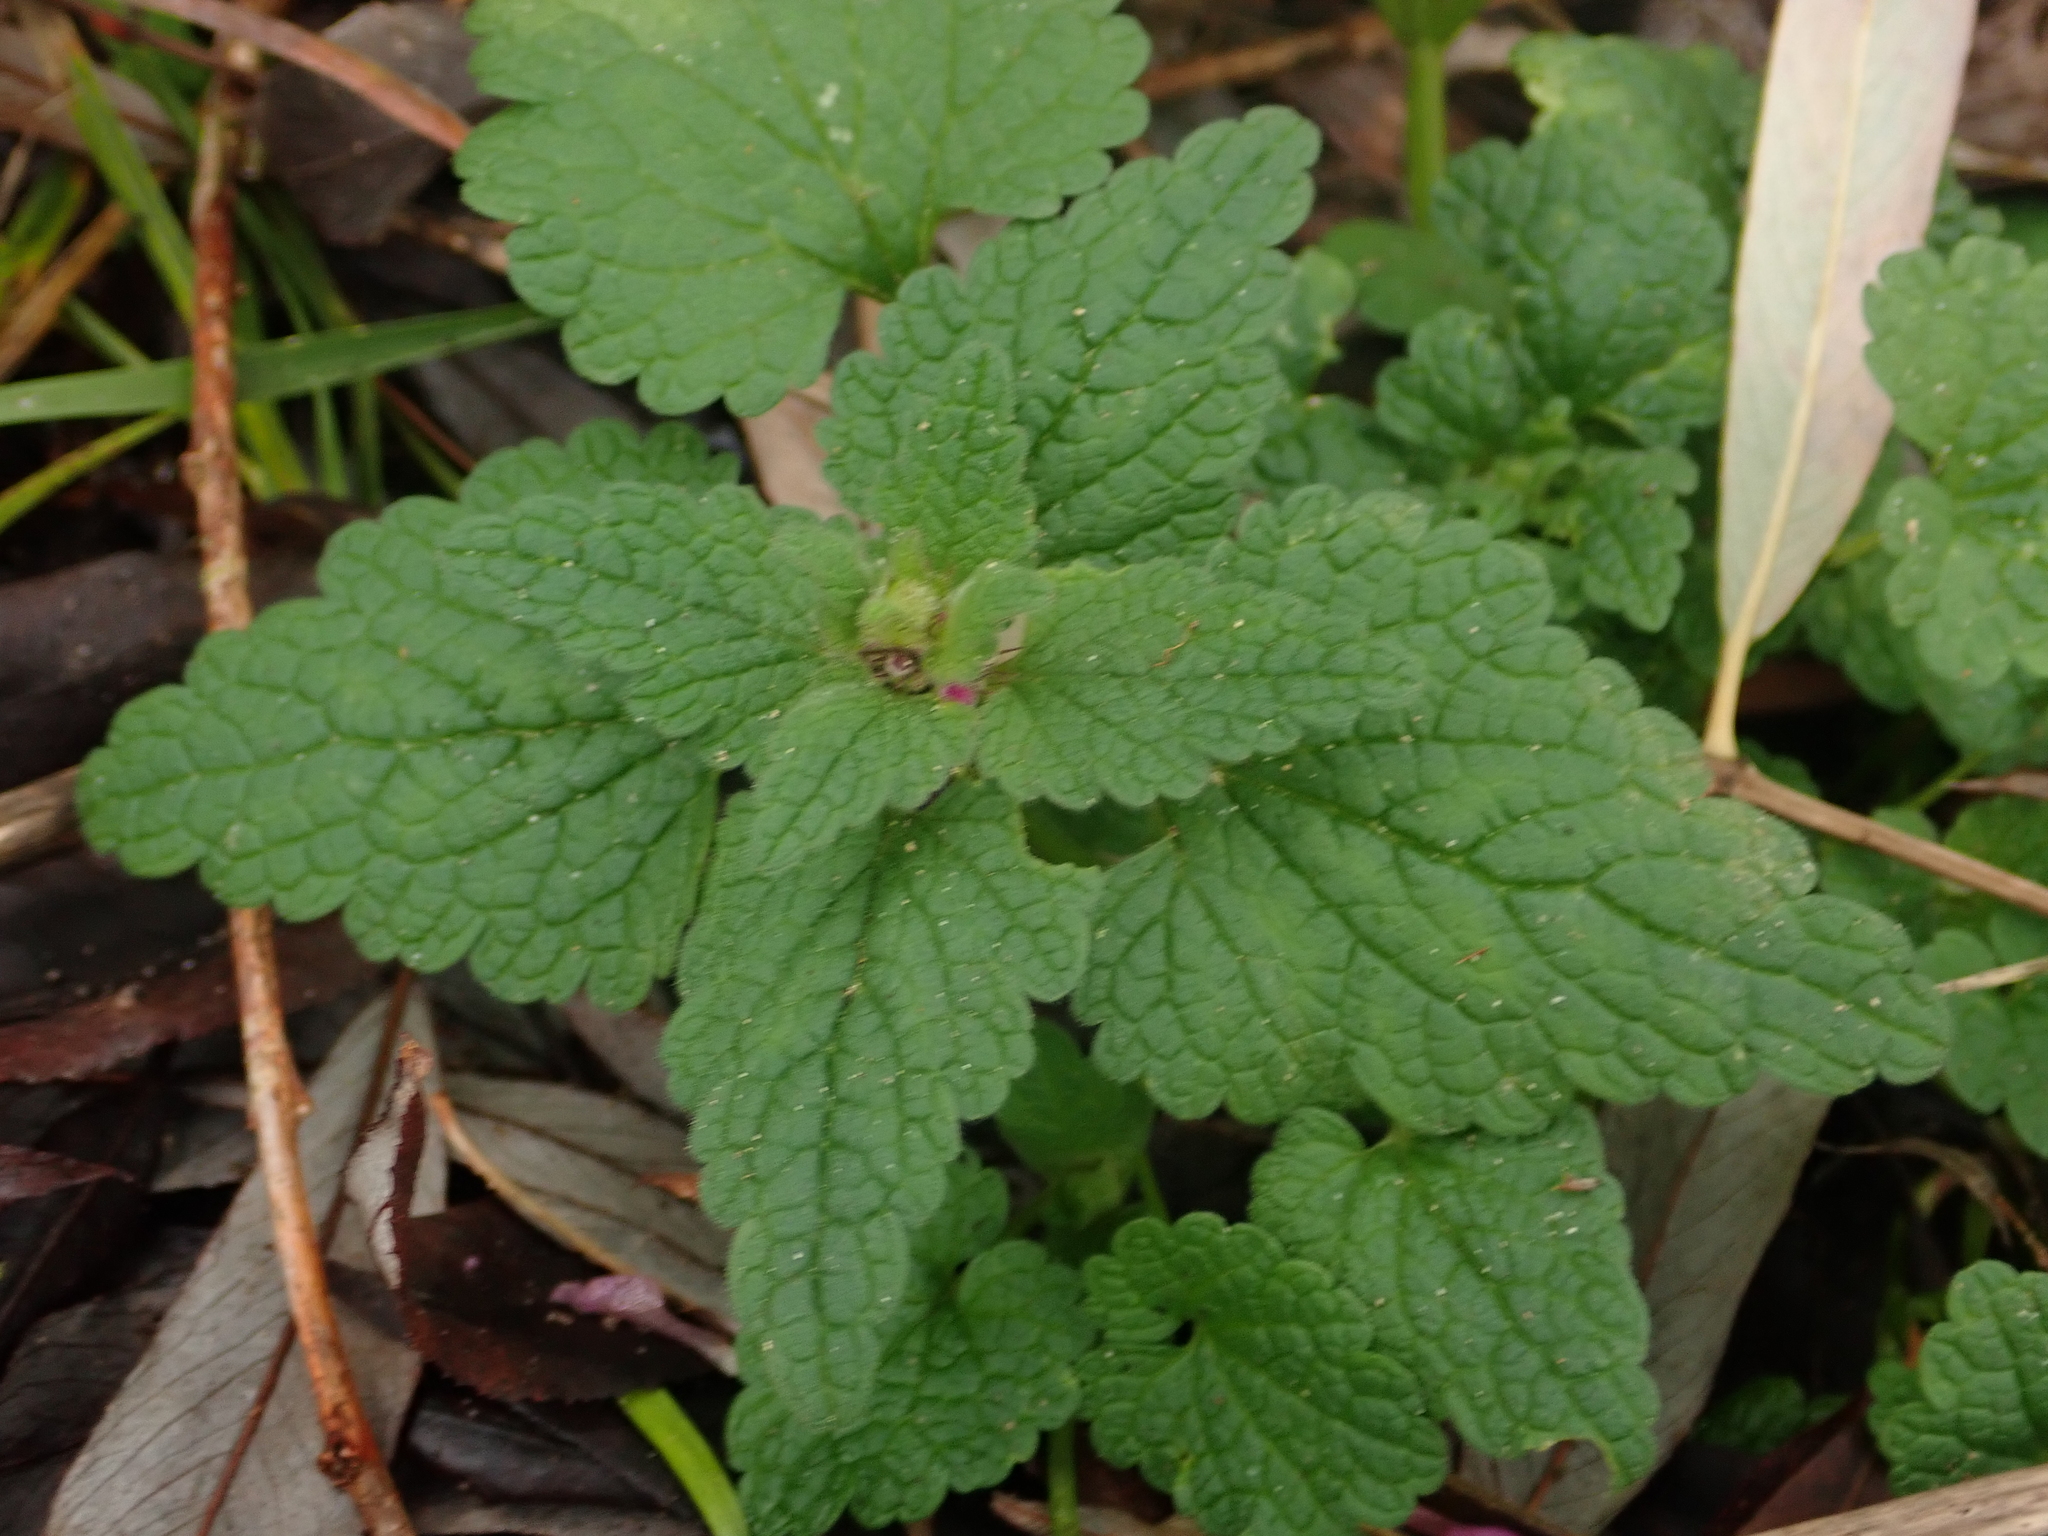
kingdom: Plantae
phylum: Tracheophyta
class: Magnoliopsida
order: Lamiales
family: Lamiaceae
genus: Lamium
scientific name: Lamium purpureum
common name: Red dead-nettle
